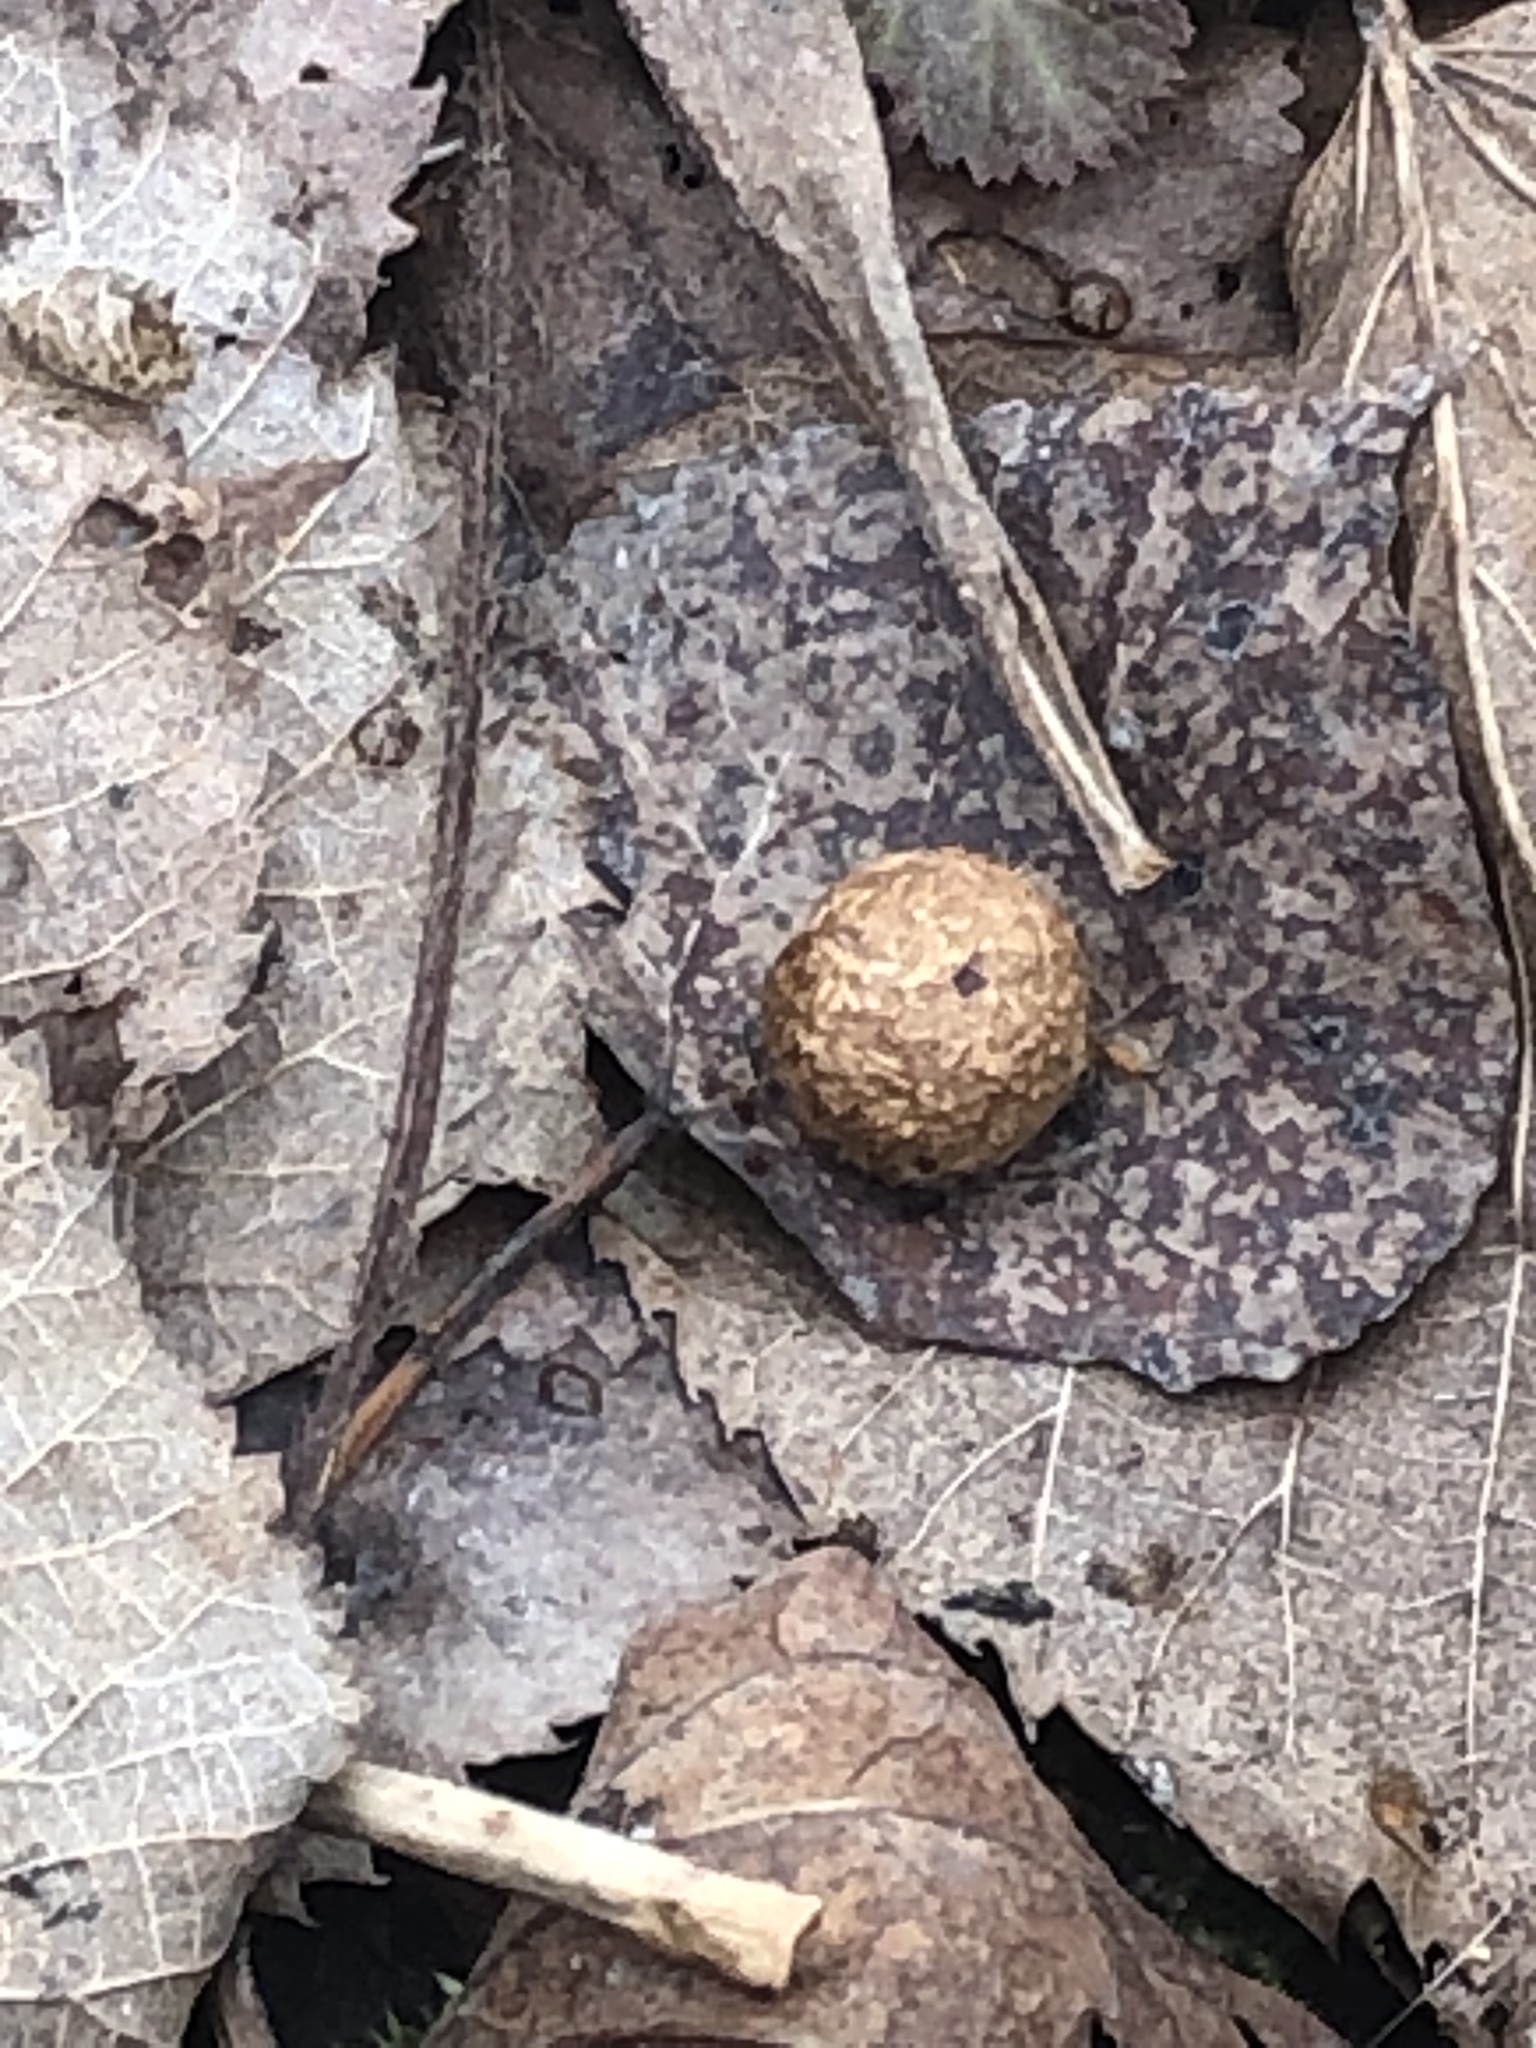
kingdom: Animalia
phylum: Chordata
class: Mammalia
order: Lagomorpha
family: Leporidae
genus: Sylvilagus
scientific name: Sylvilagus floridanus
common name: Eastern cottontail
